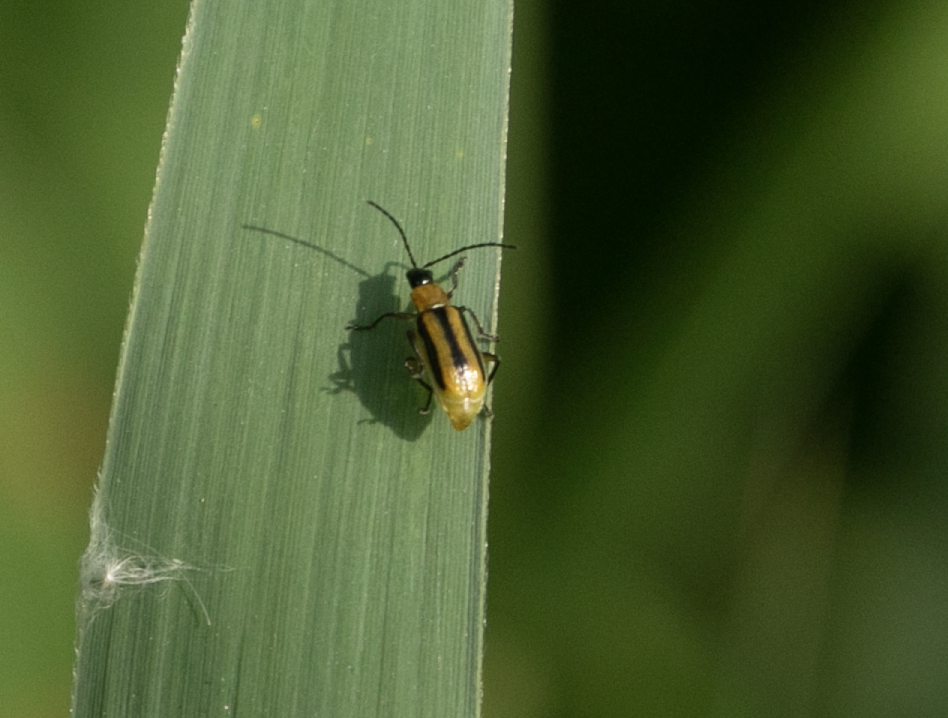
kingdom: Animalia
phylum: Arthropoda
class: Insecta
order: Coleoptera
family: Chrysomelidae
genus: Diabrotica
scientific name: Diabrotica virgifera
